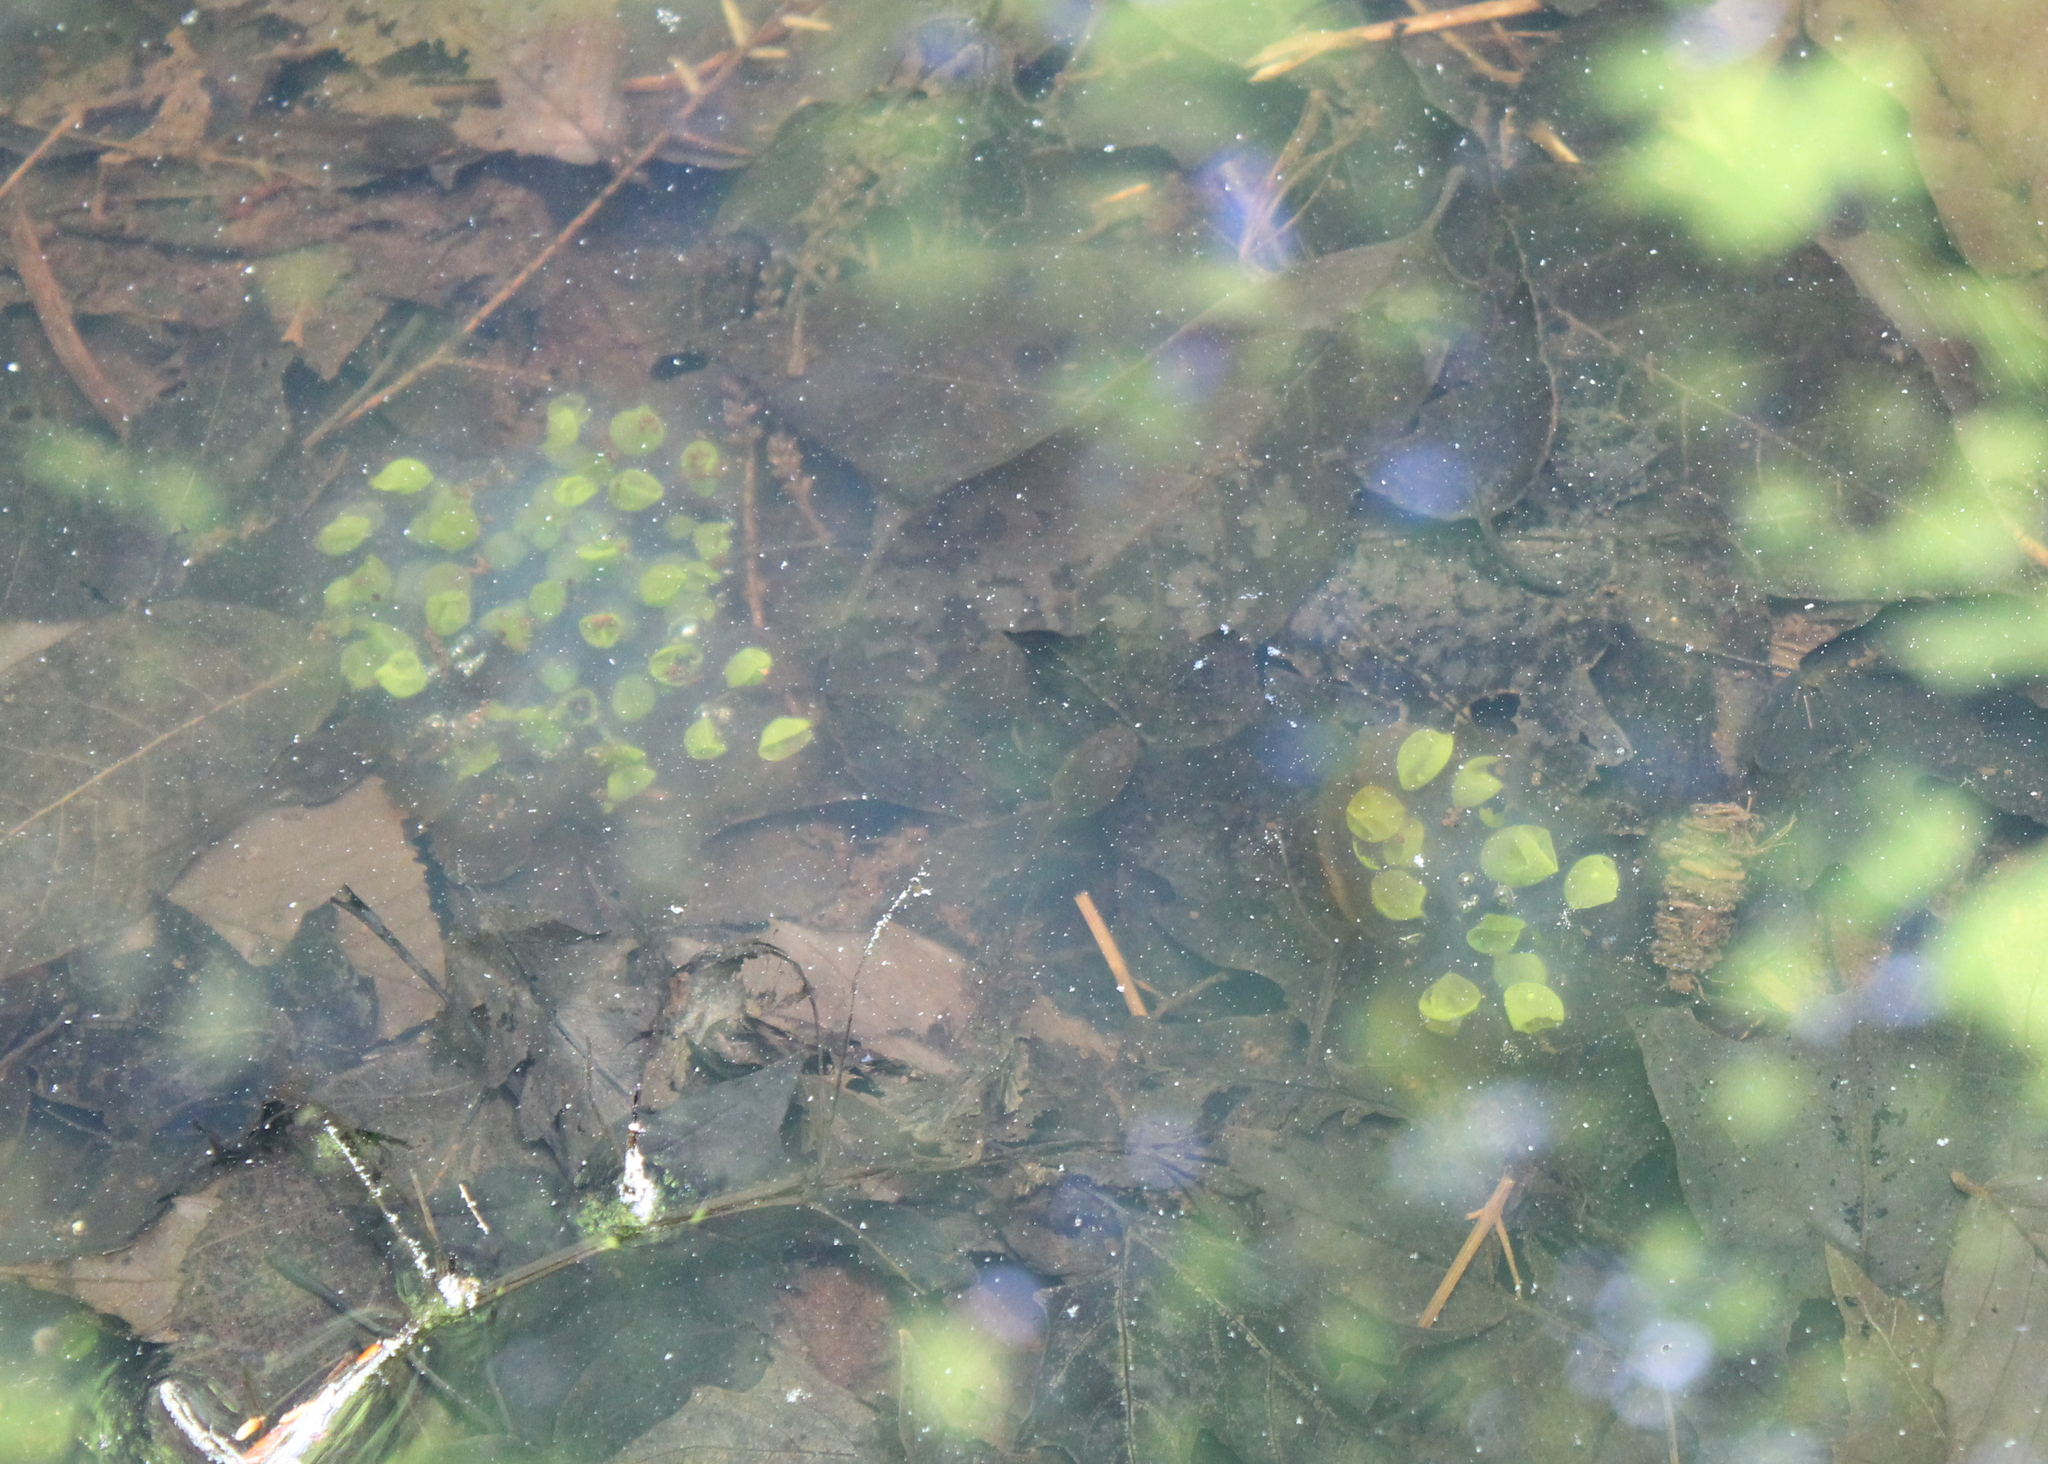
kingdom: Animalia
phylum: Chordata
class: Amphibia
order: Caudata
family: Ambystomatidae
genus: Ambystoma
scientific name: Ambystoma maculatum
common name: Spotted salamander
